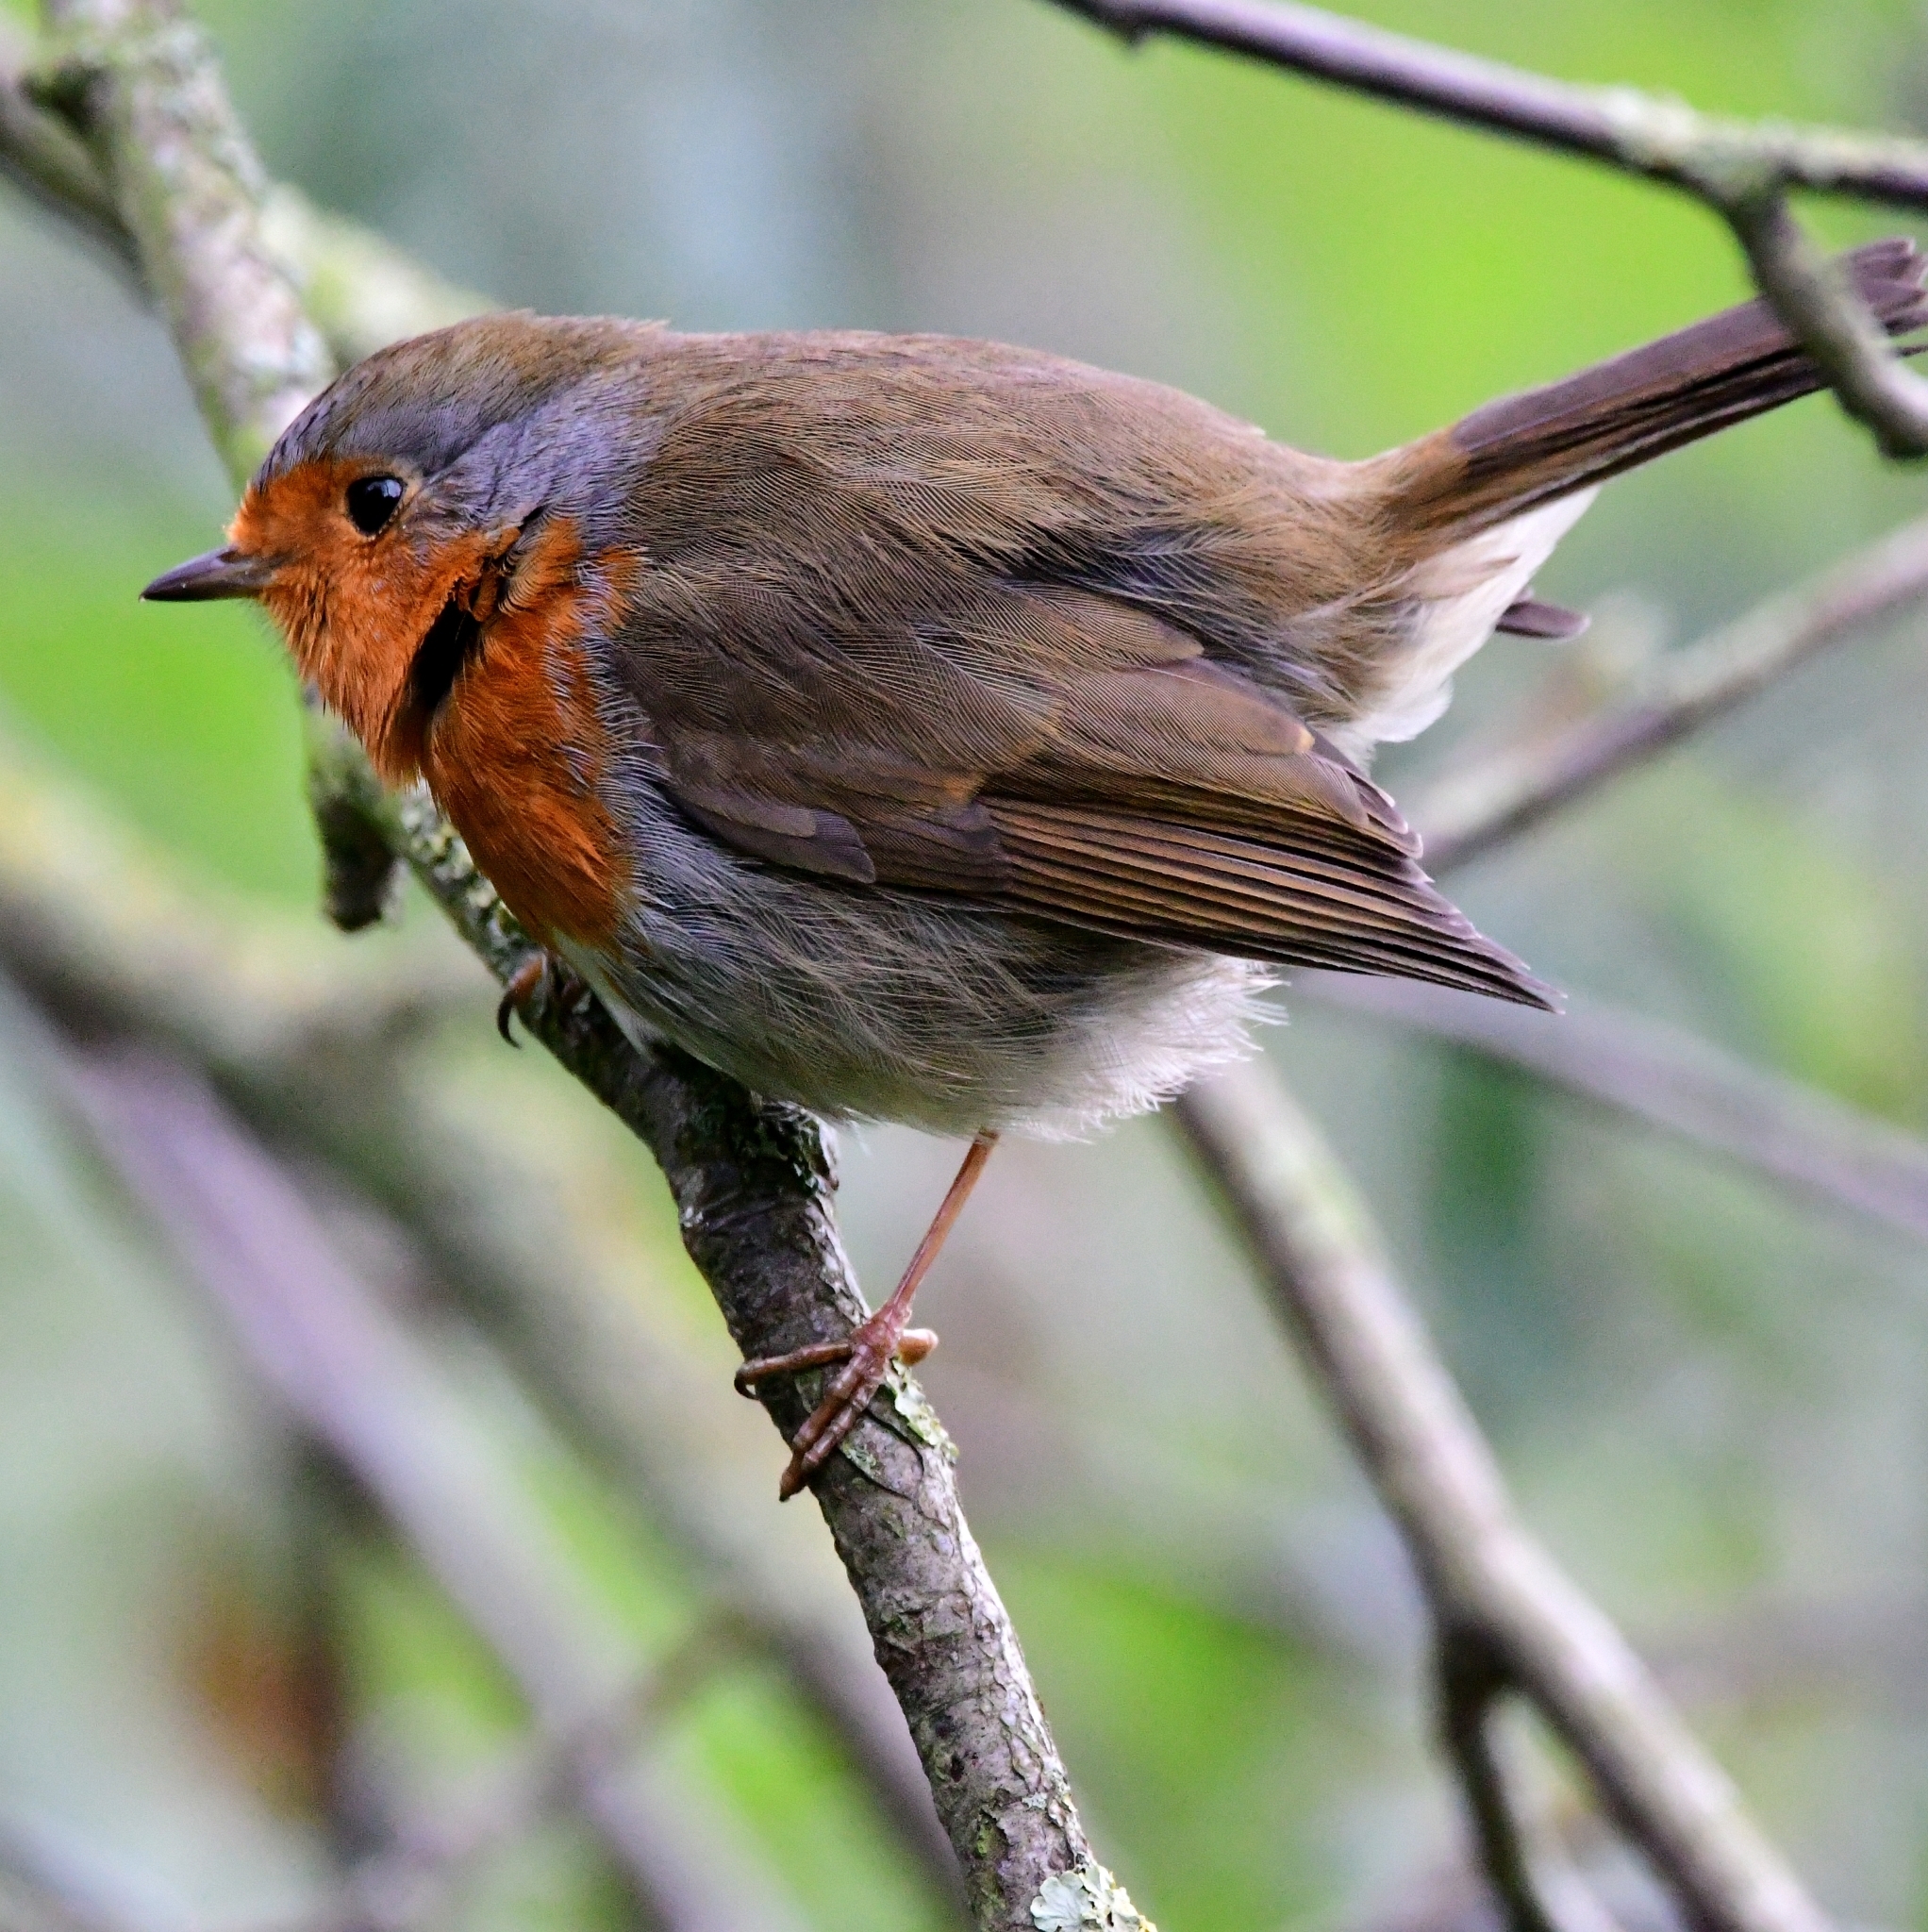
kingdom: Animalia
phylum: Chordata
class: Aves
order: Passeriformes
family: Muscicapidae
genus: Erithacus
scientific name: Erithacus rubecula
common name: European robin
